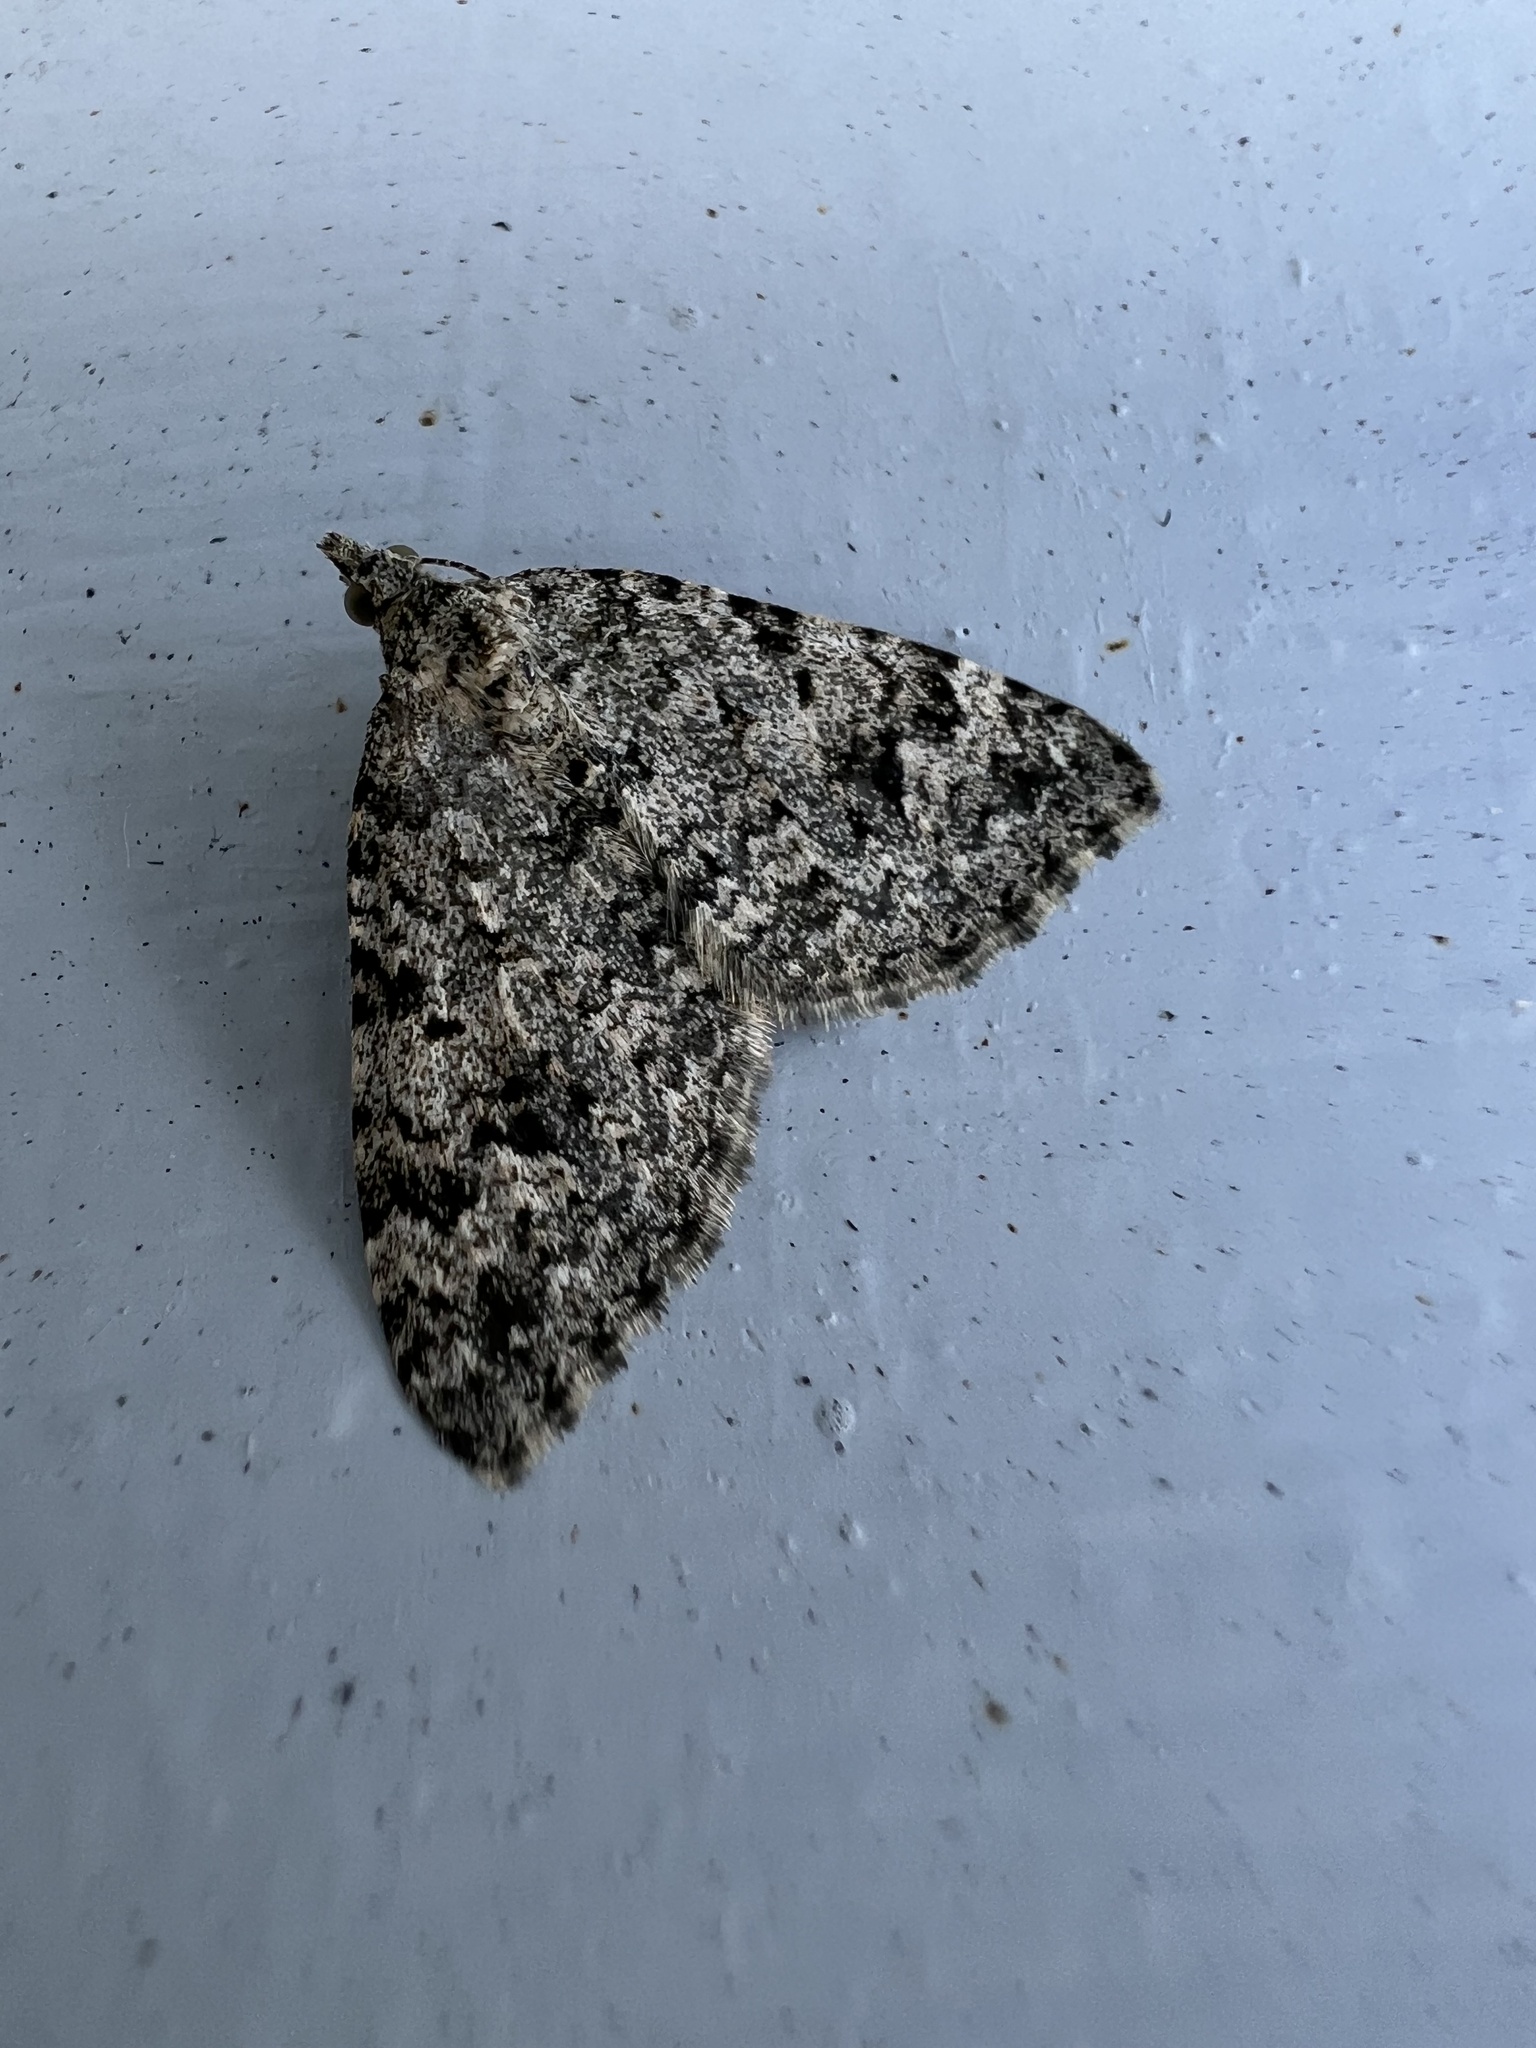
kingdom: Animalia
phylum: Arthropoda
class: Insecta
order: Lepidoptera
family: Geometridae
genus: Helastia
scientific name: Helastia cinerearia
